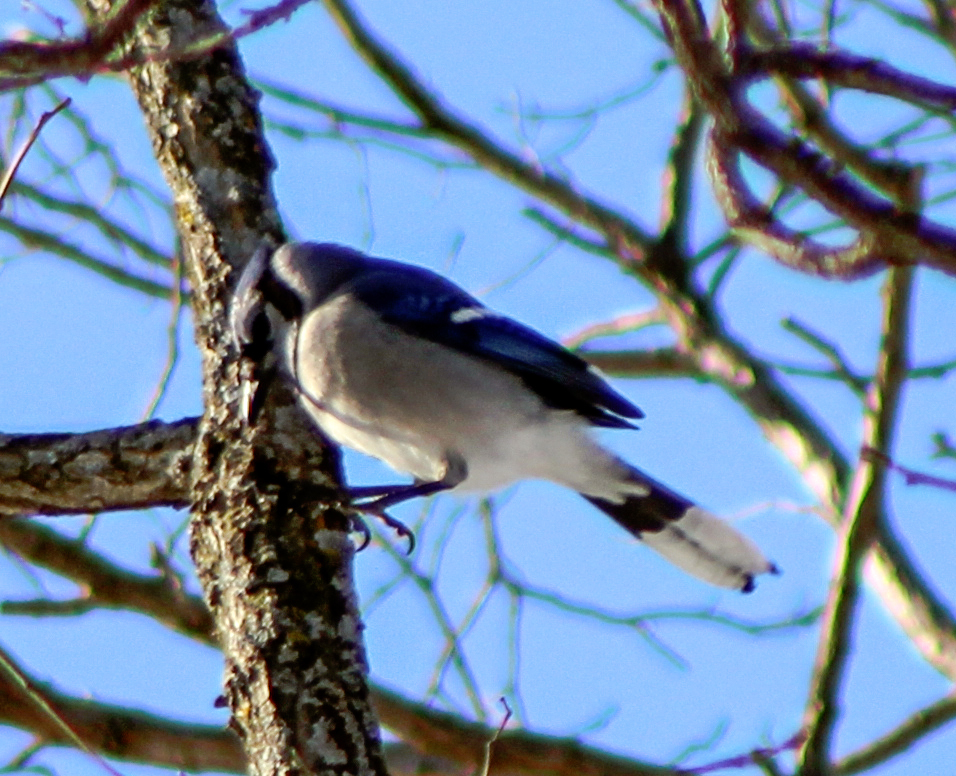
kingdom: Animalia
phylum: Chordata
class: Aves
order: Passeriformes
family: Corvidae
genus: Cyanocitta
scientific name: Cyanocitta cristata
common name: Blue jay
